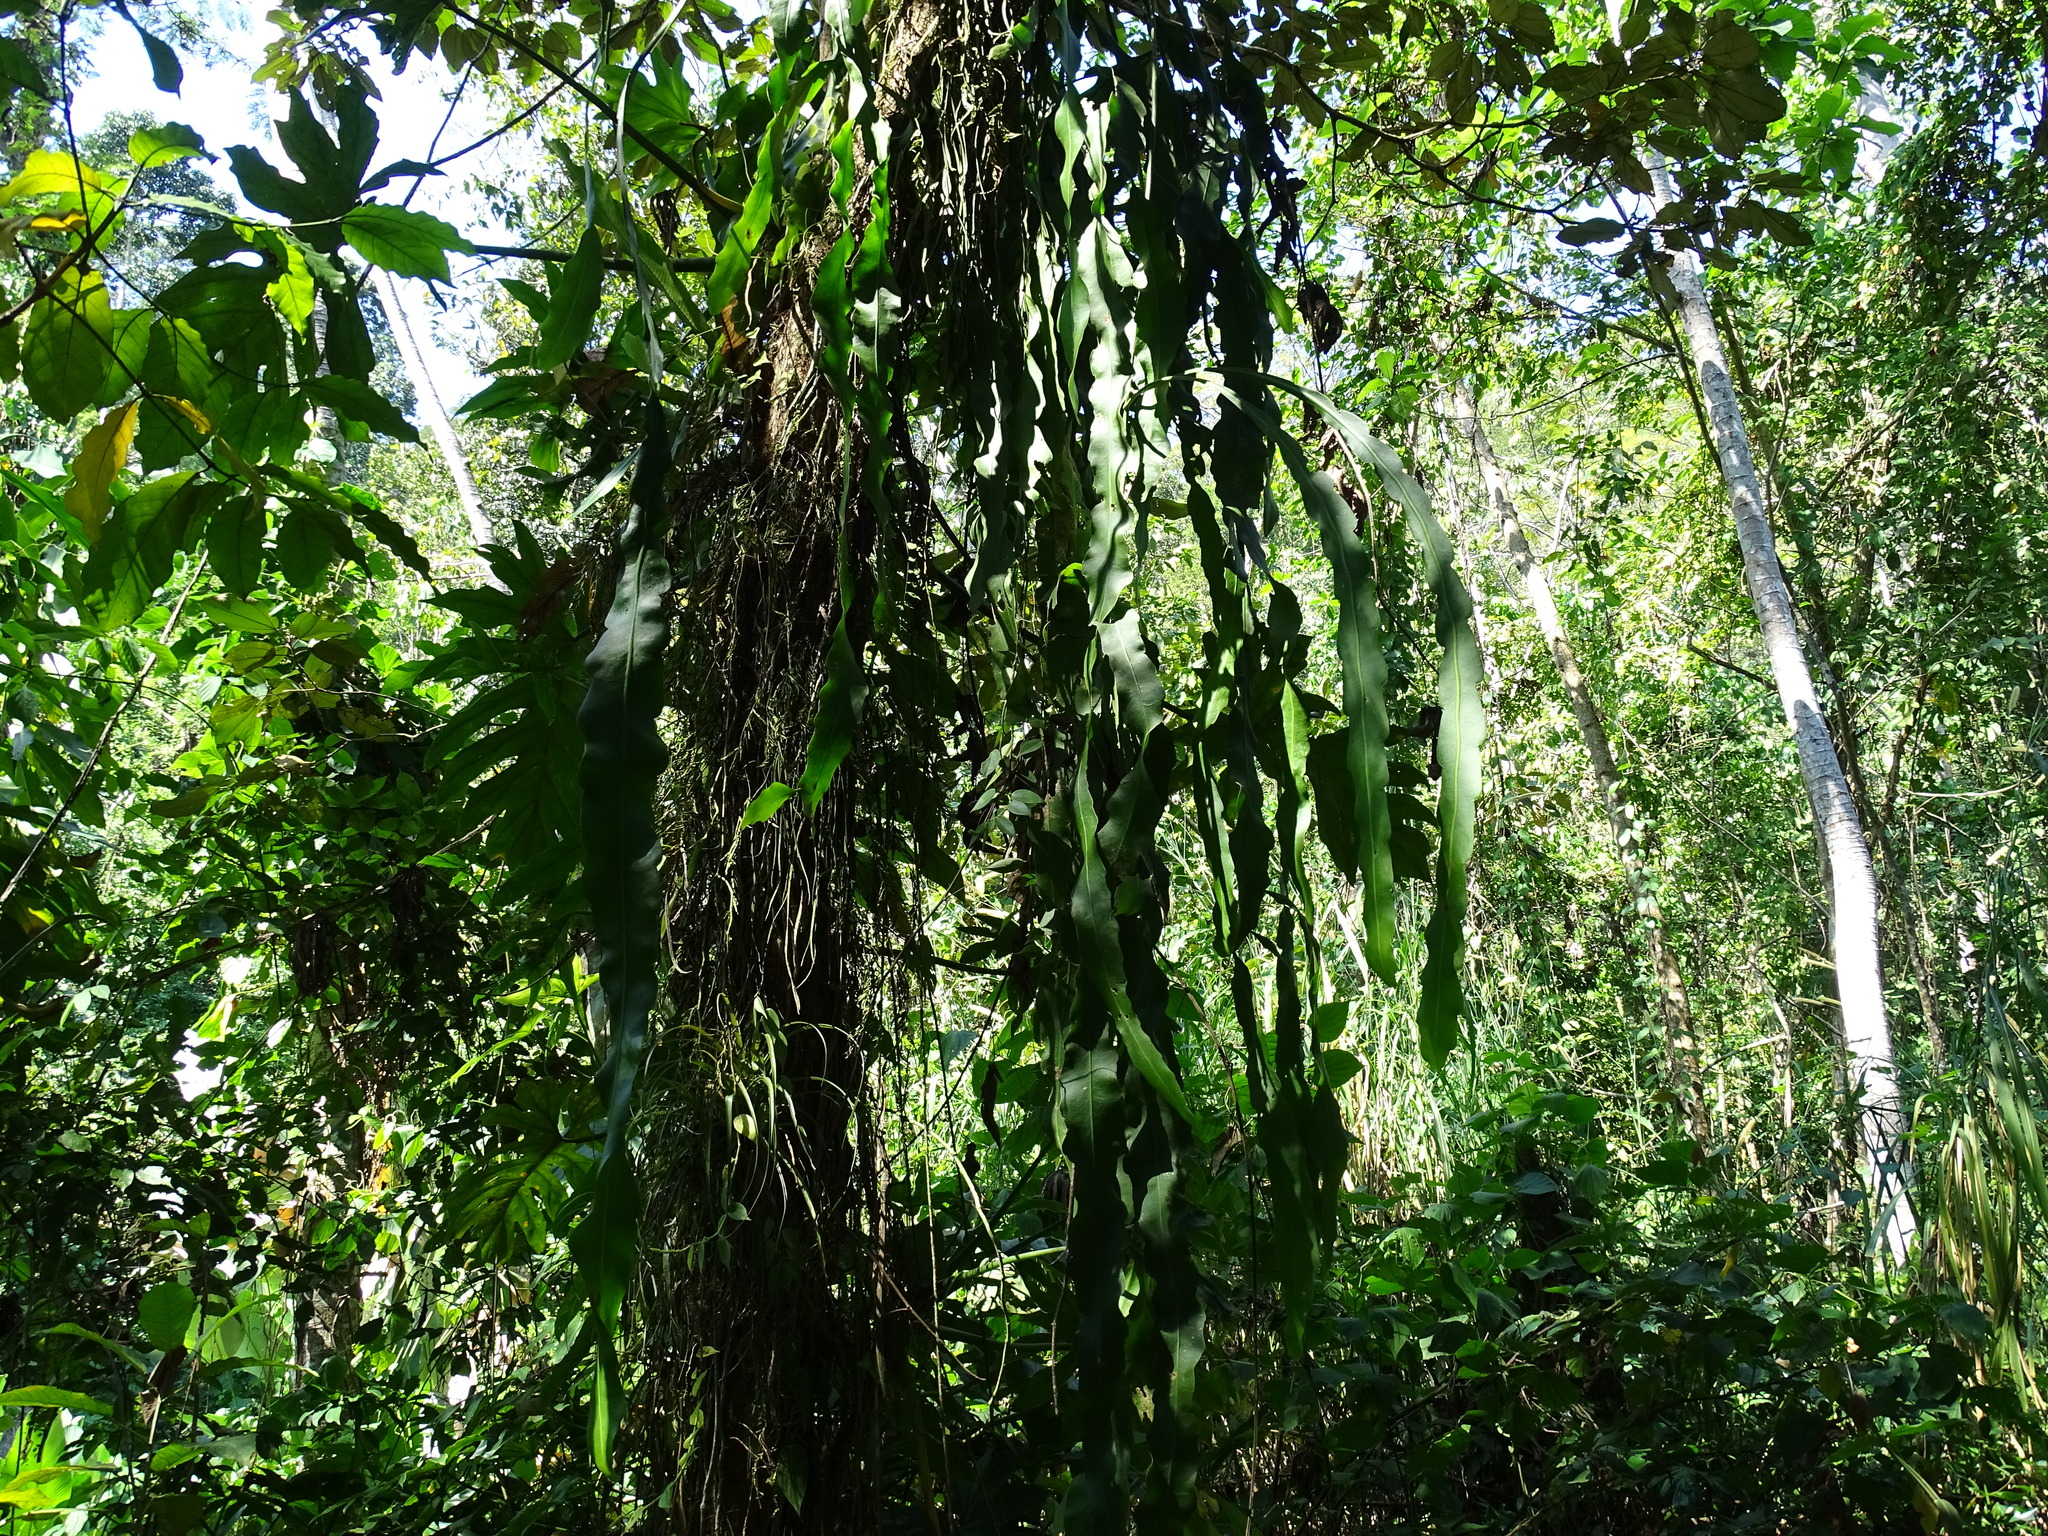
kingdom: Plantae
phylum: Tracheophyta
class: Magnoliopsida
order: Caryophyllales
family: Cactaceae
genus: Epiphyllum
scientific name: Epiphyllum oxypetalum
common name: Dutchman's pipe cactus
